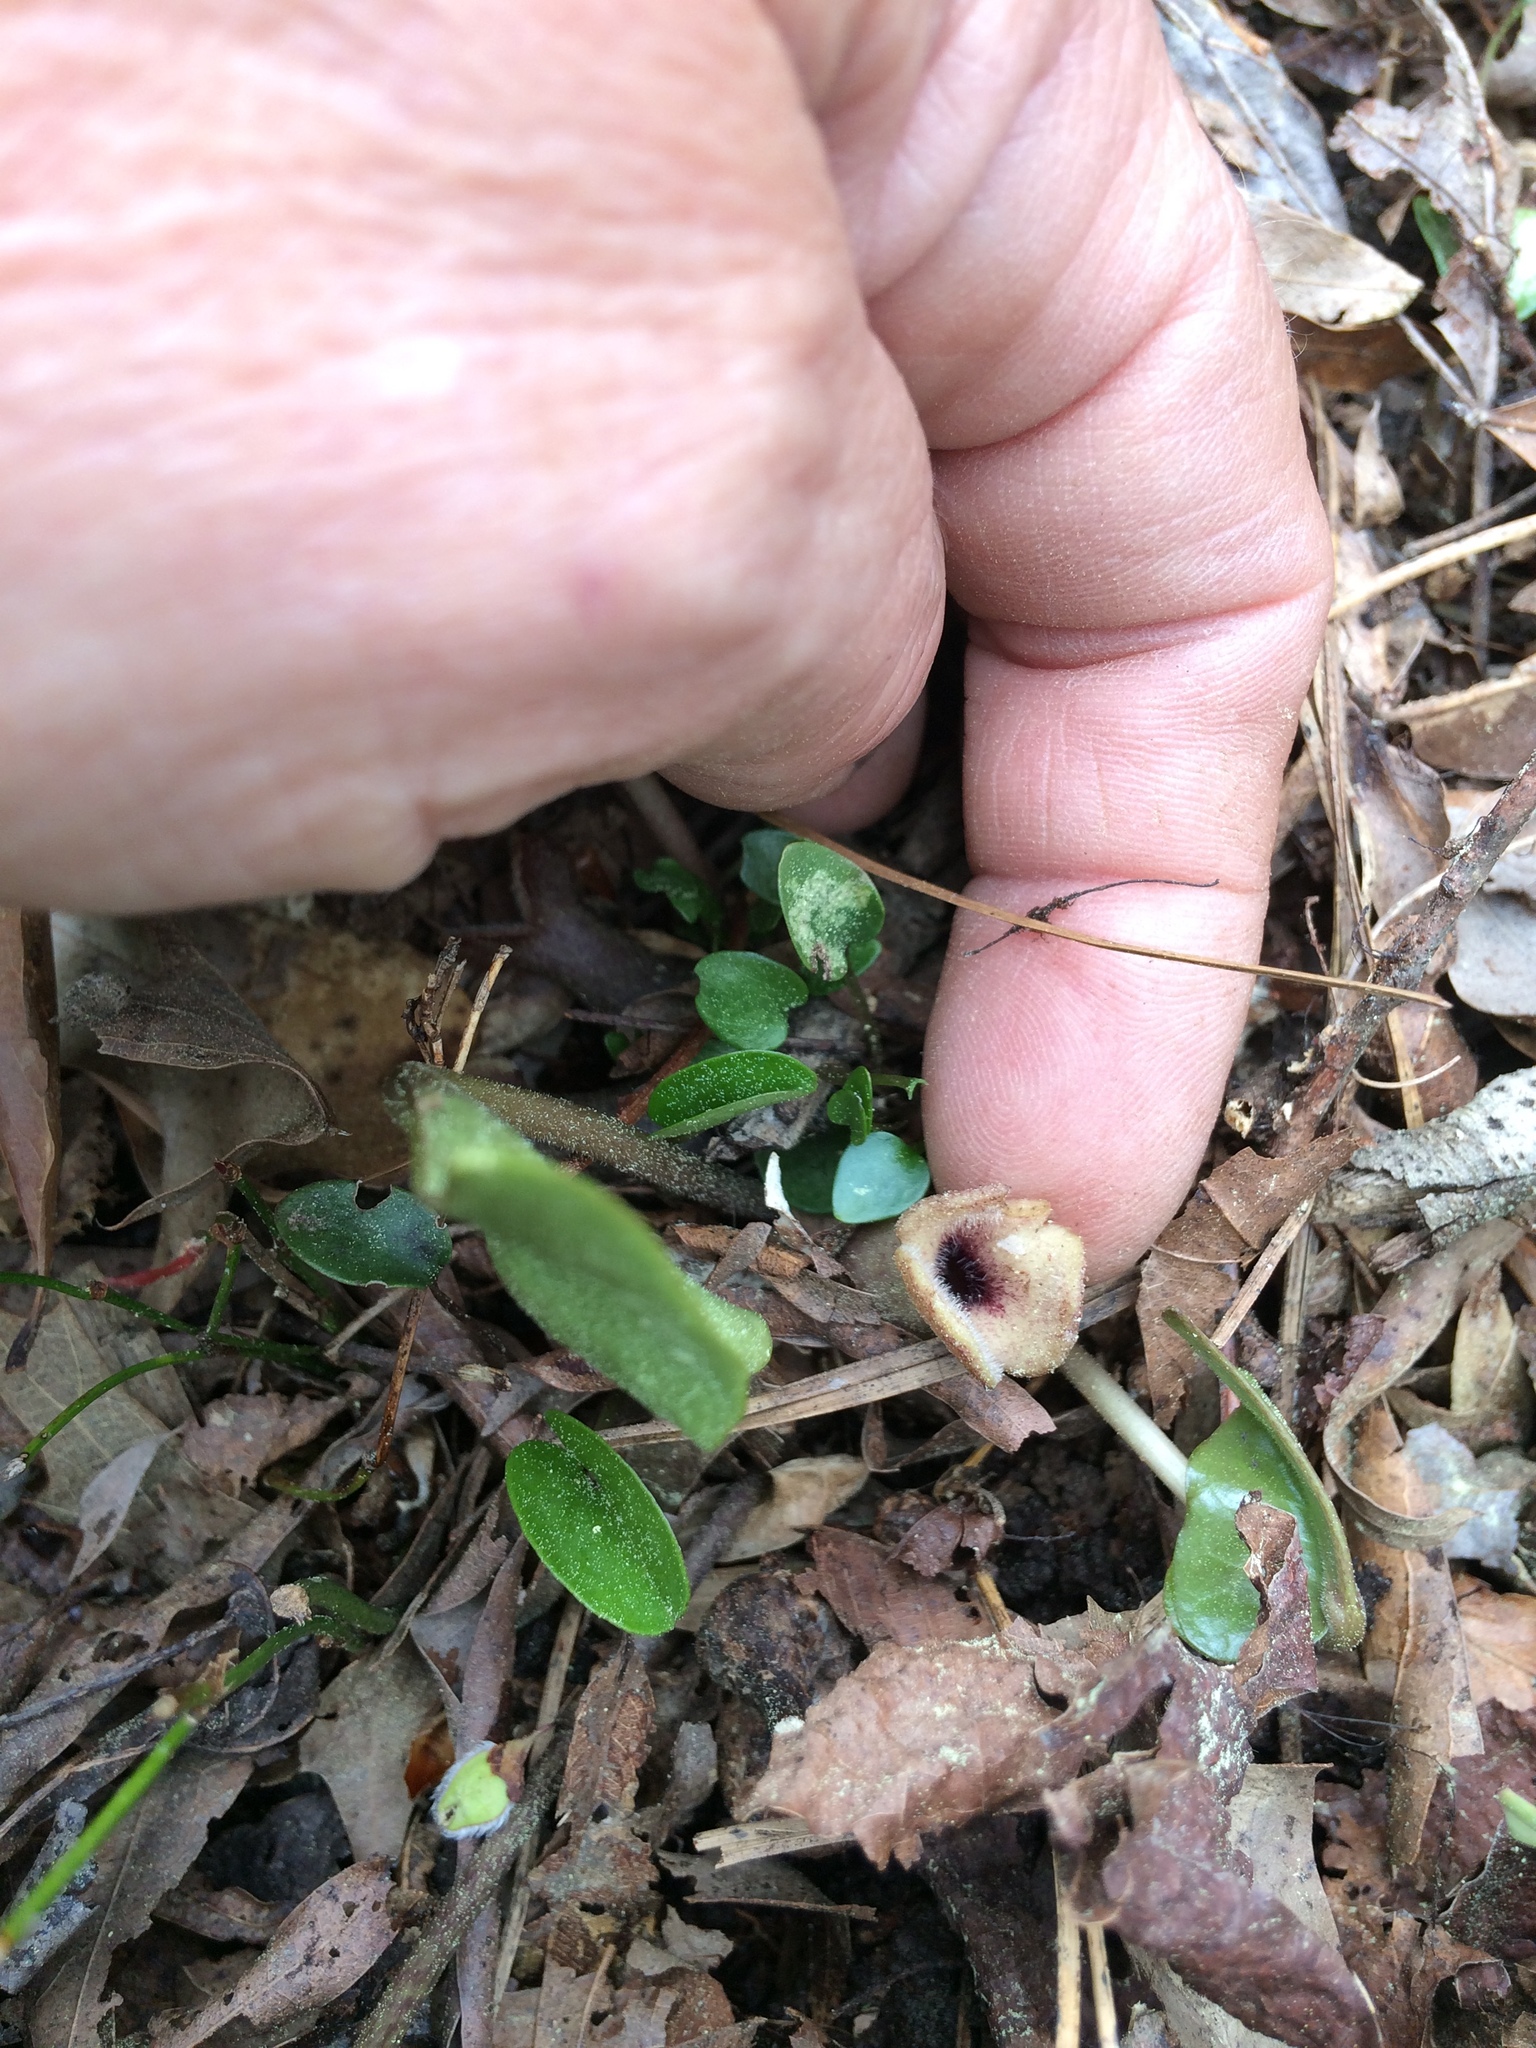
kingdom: Plantae
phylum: Tracheophyta
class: Magnoliopsida
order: Piperales
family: Aristolochiaceae
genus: Hexastylis
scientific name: Hexastylis arifolia
